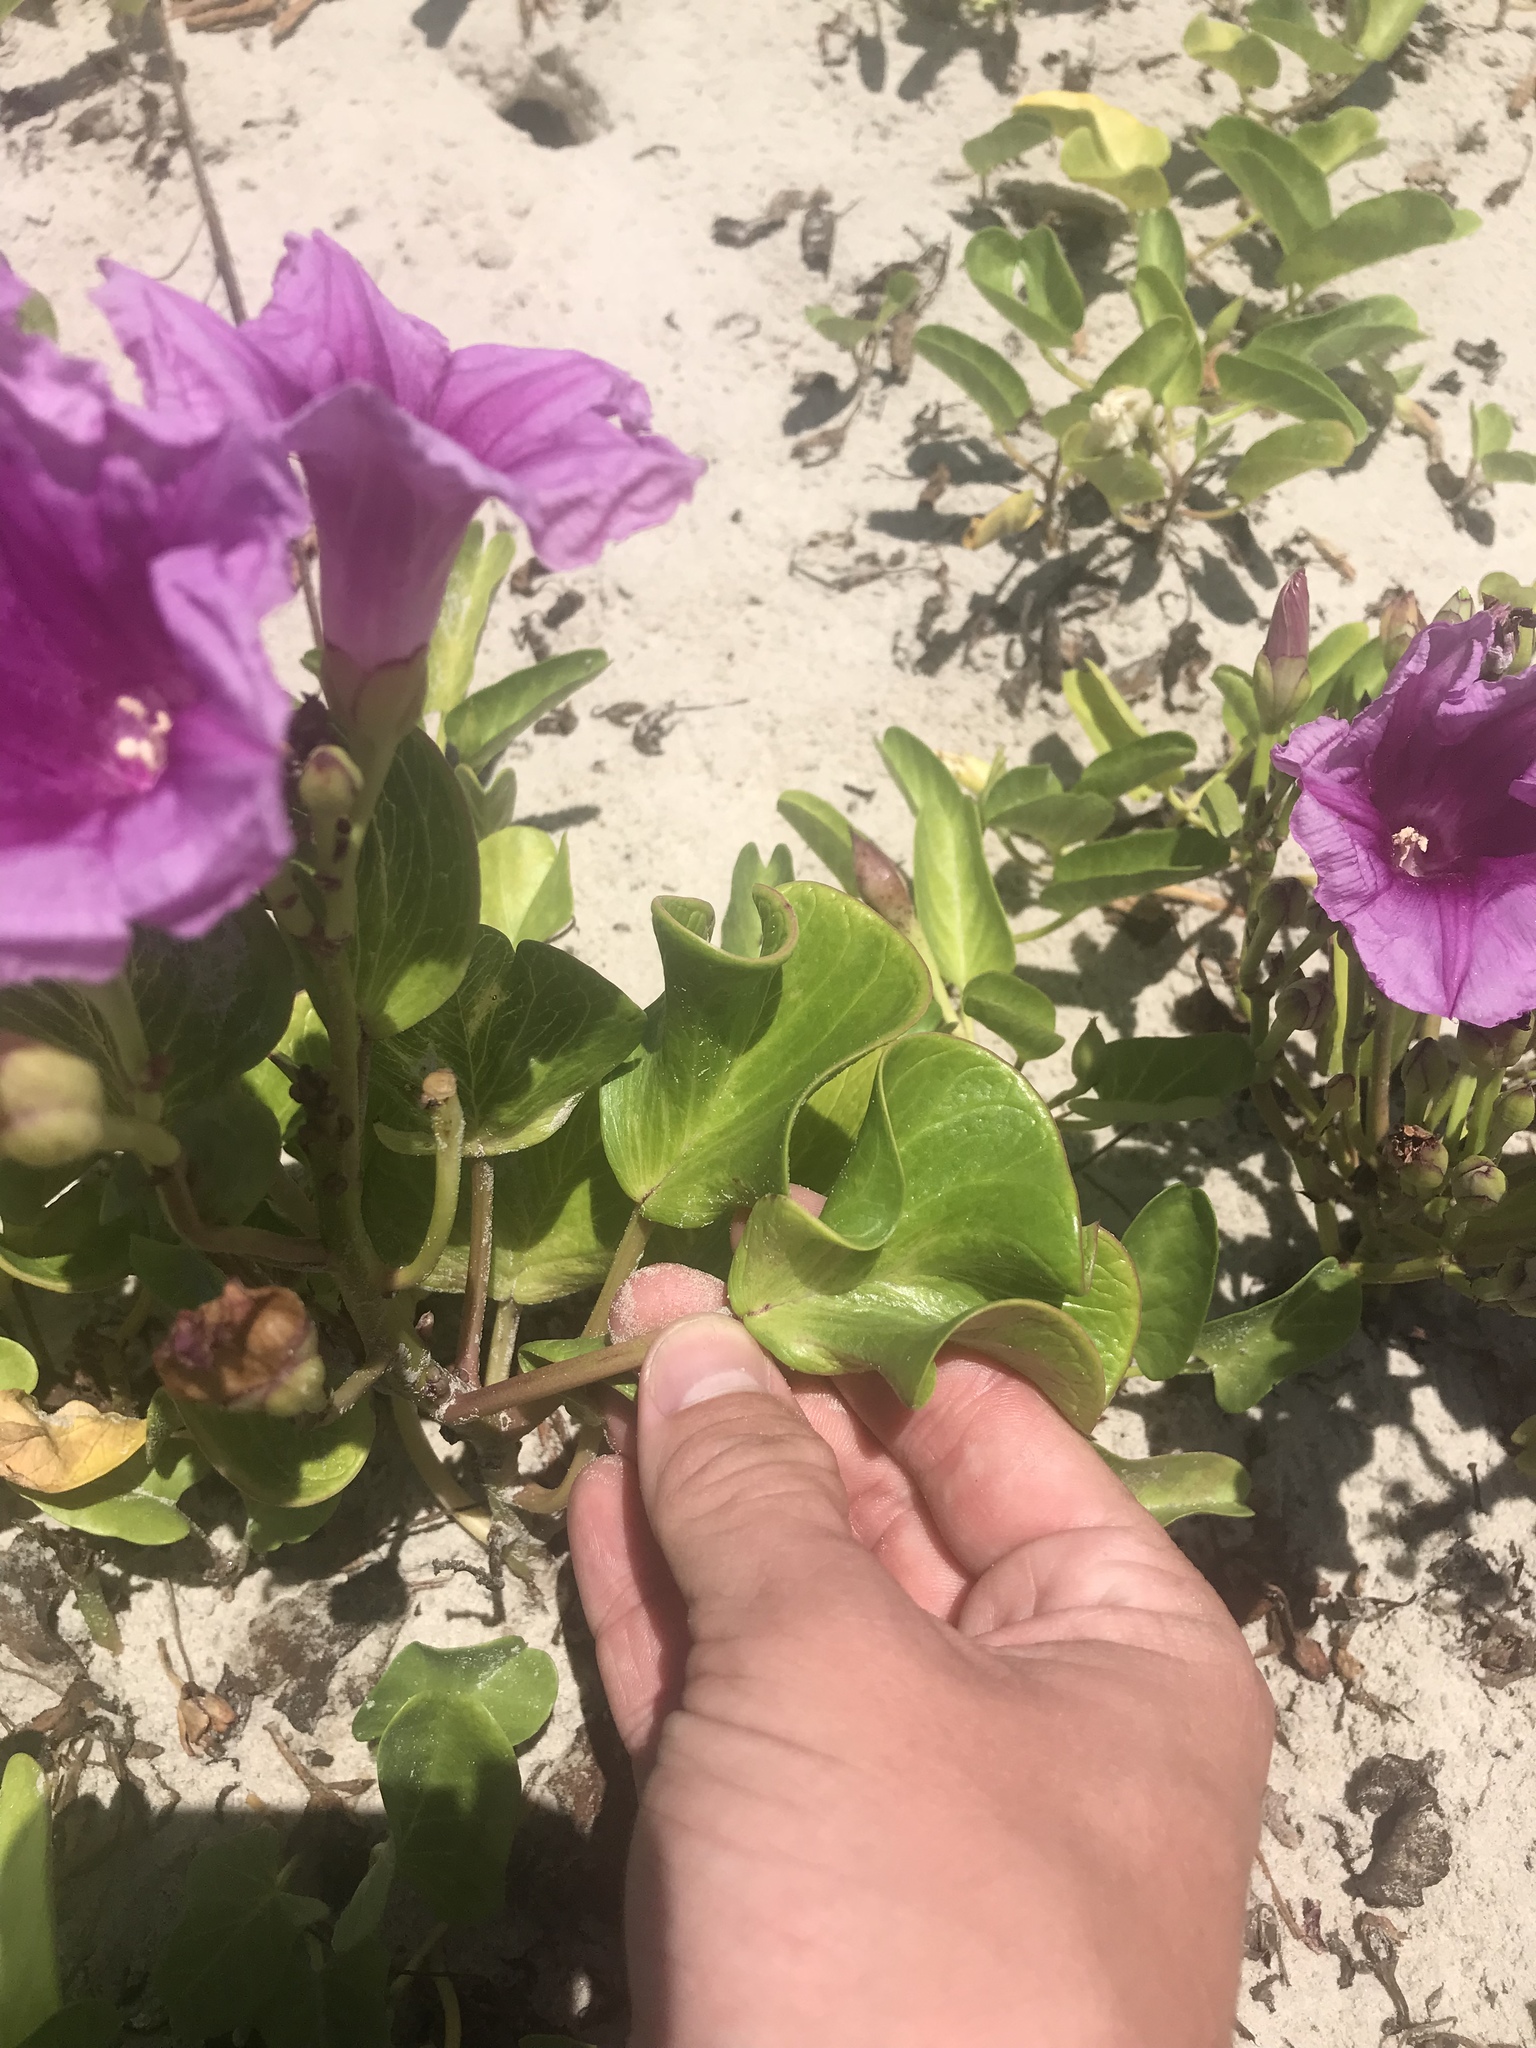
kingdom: Plantae
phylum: Tracheophyta
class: Magnoliopsida
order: Solanales
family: Convolvulaceae
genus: Ipomoea
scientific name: Ipomoea pes-caprae
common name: Beach morning glory
